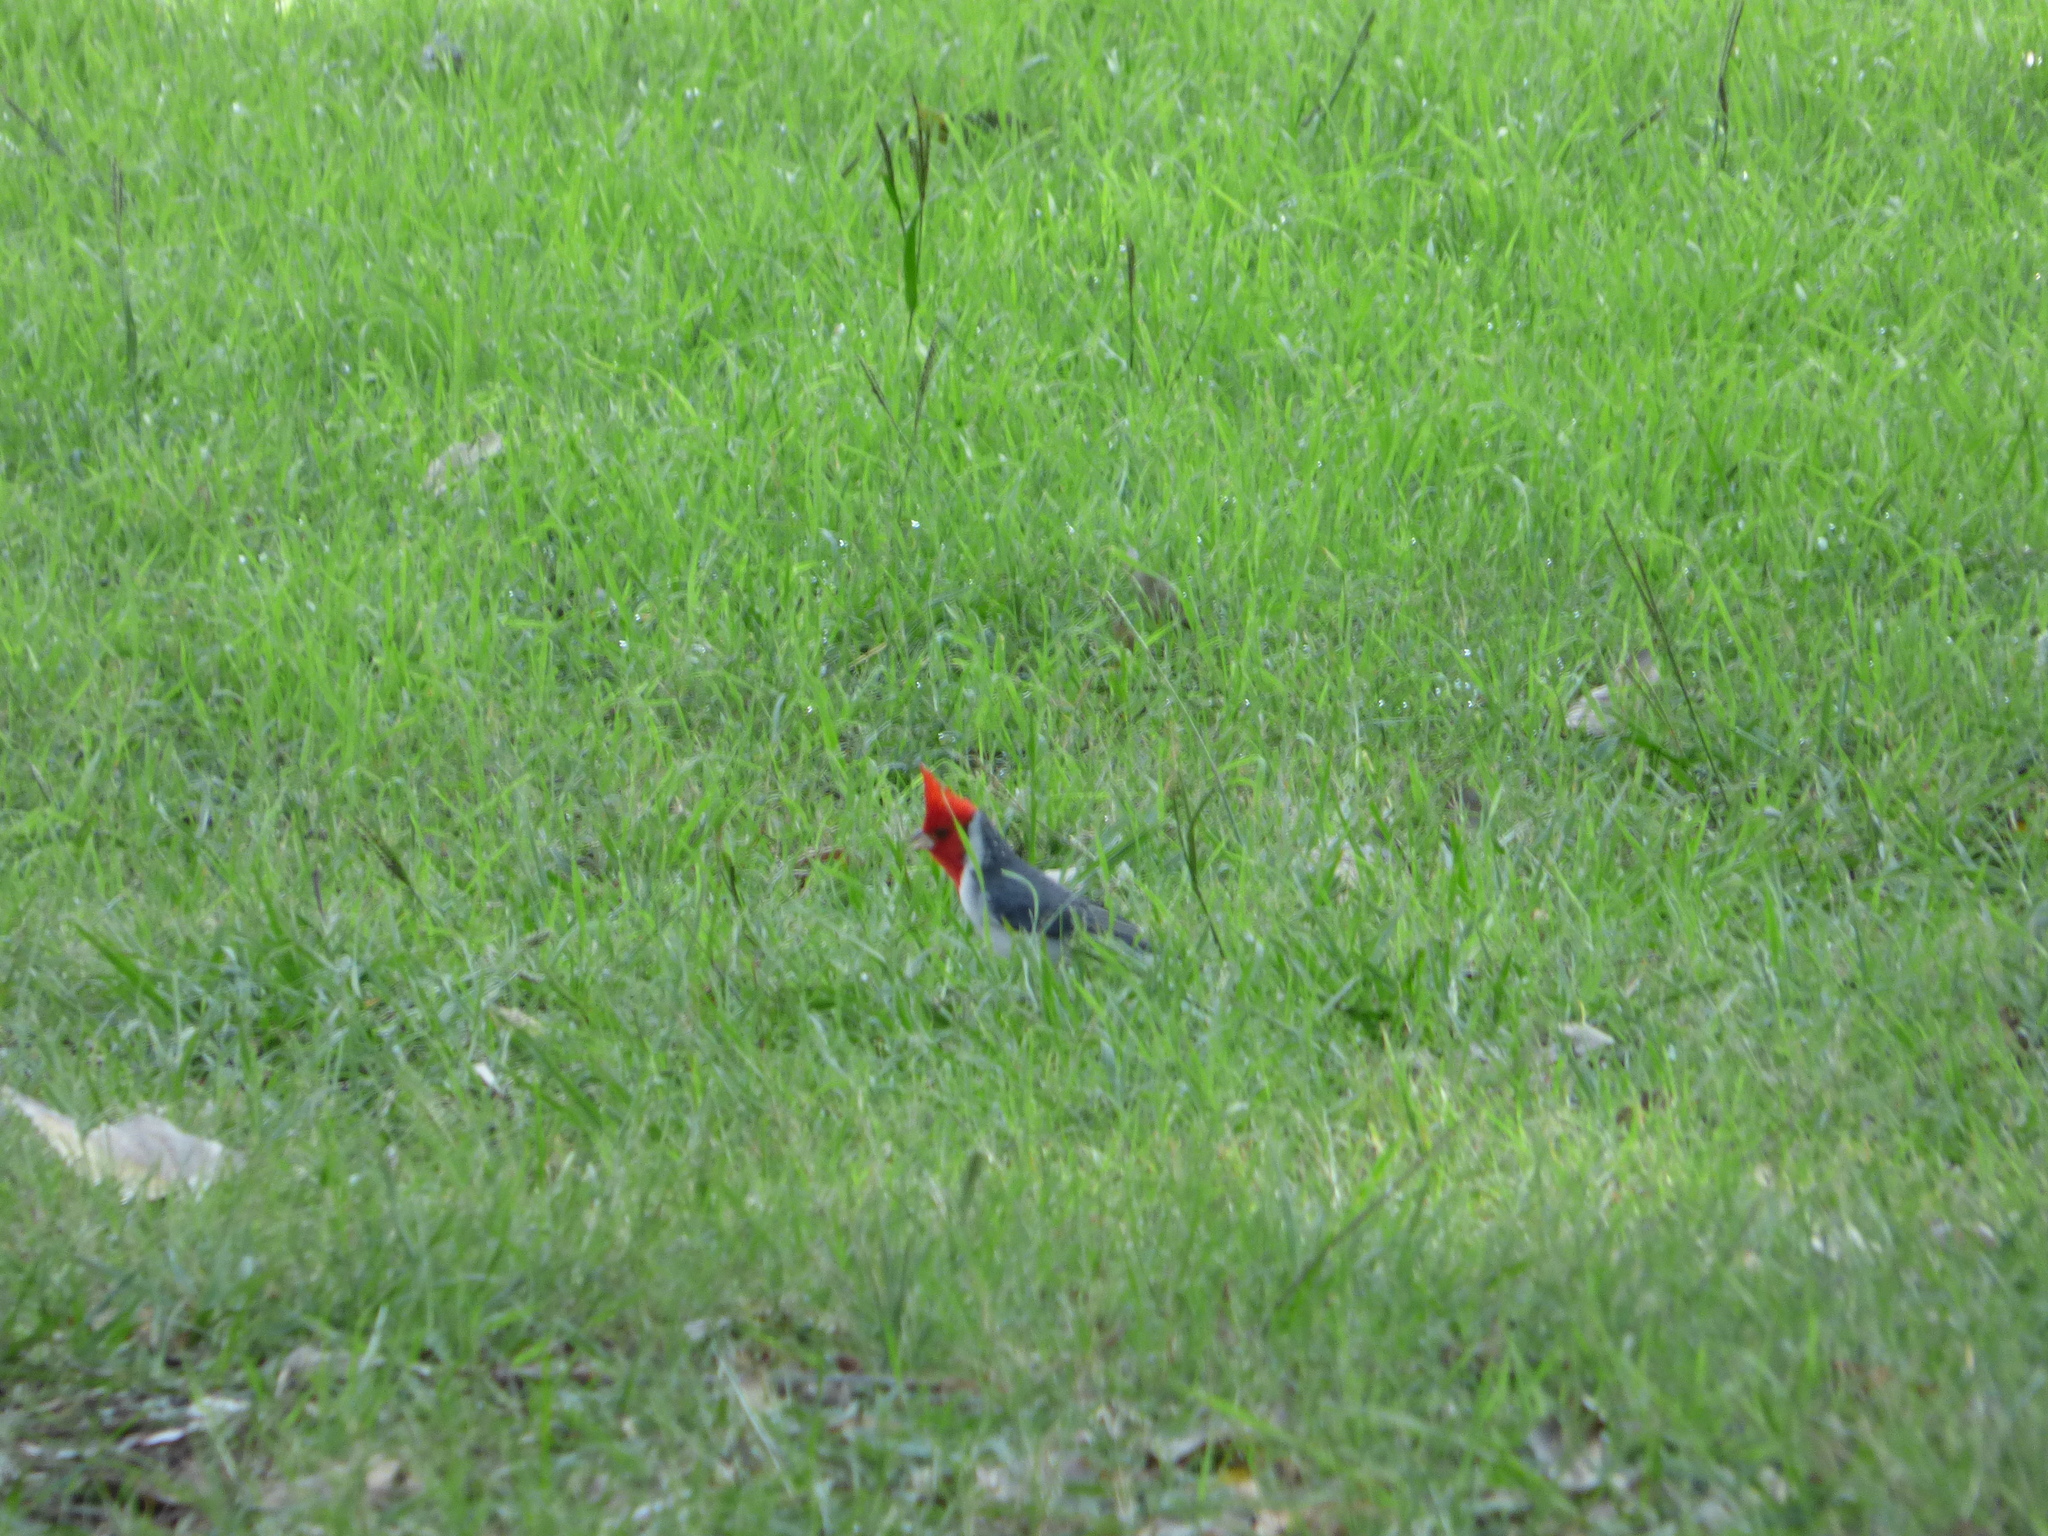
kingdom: Animalia
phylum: Chordata
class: Aves
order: Passeriformes
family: Thraupidae
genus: Paroaria
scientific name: Paroaria coronata
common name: Red-crested cardinal
